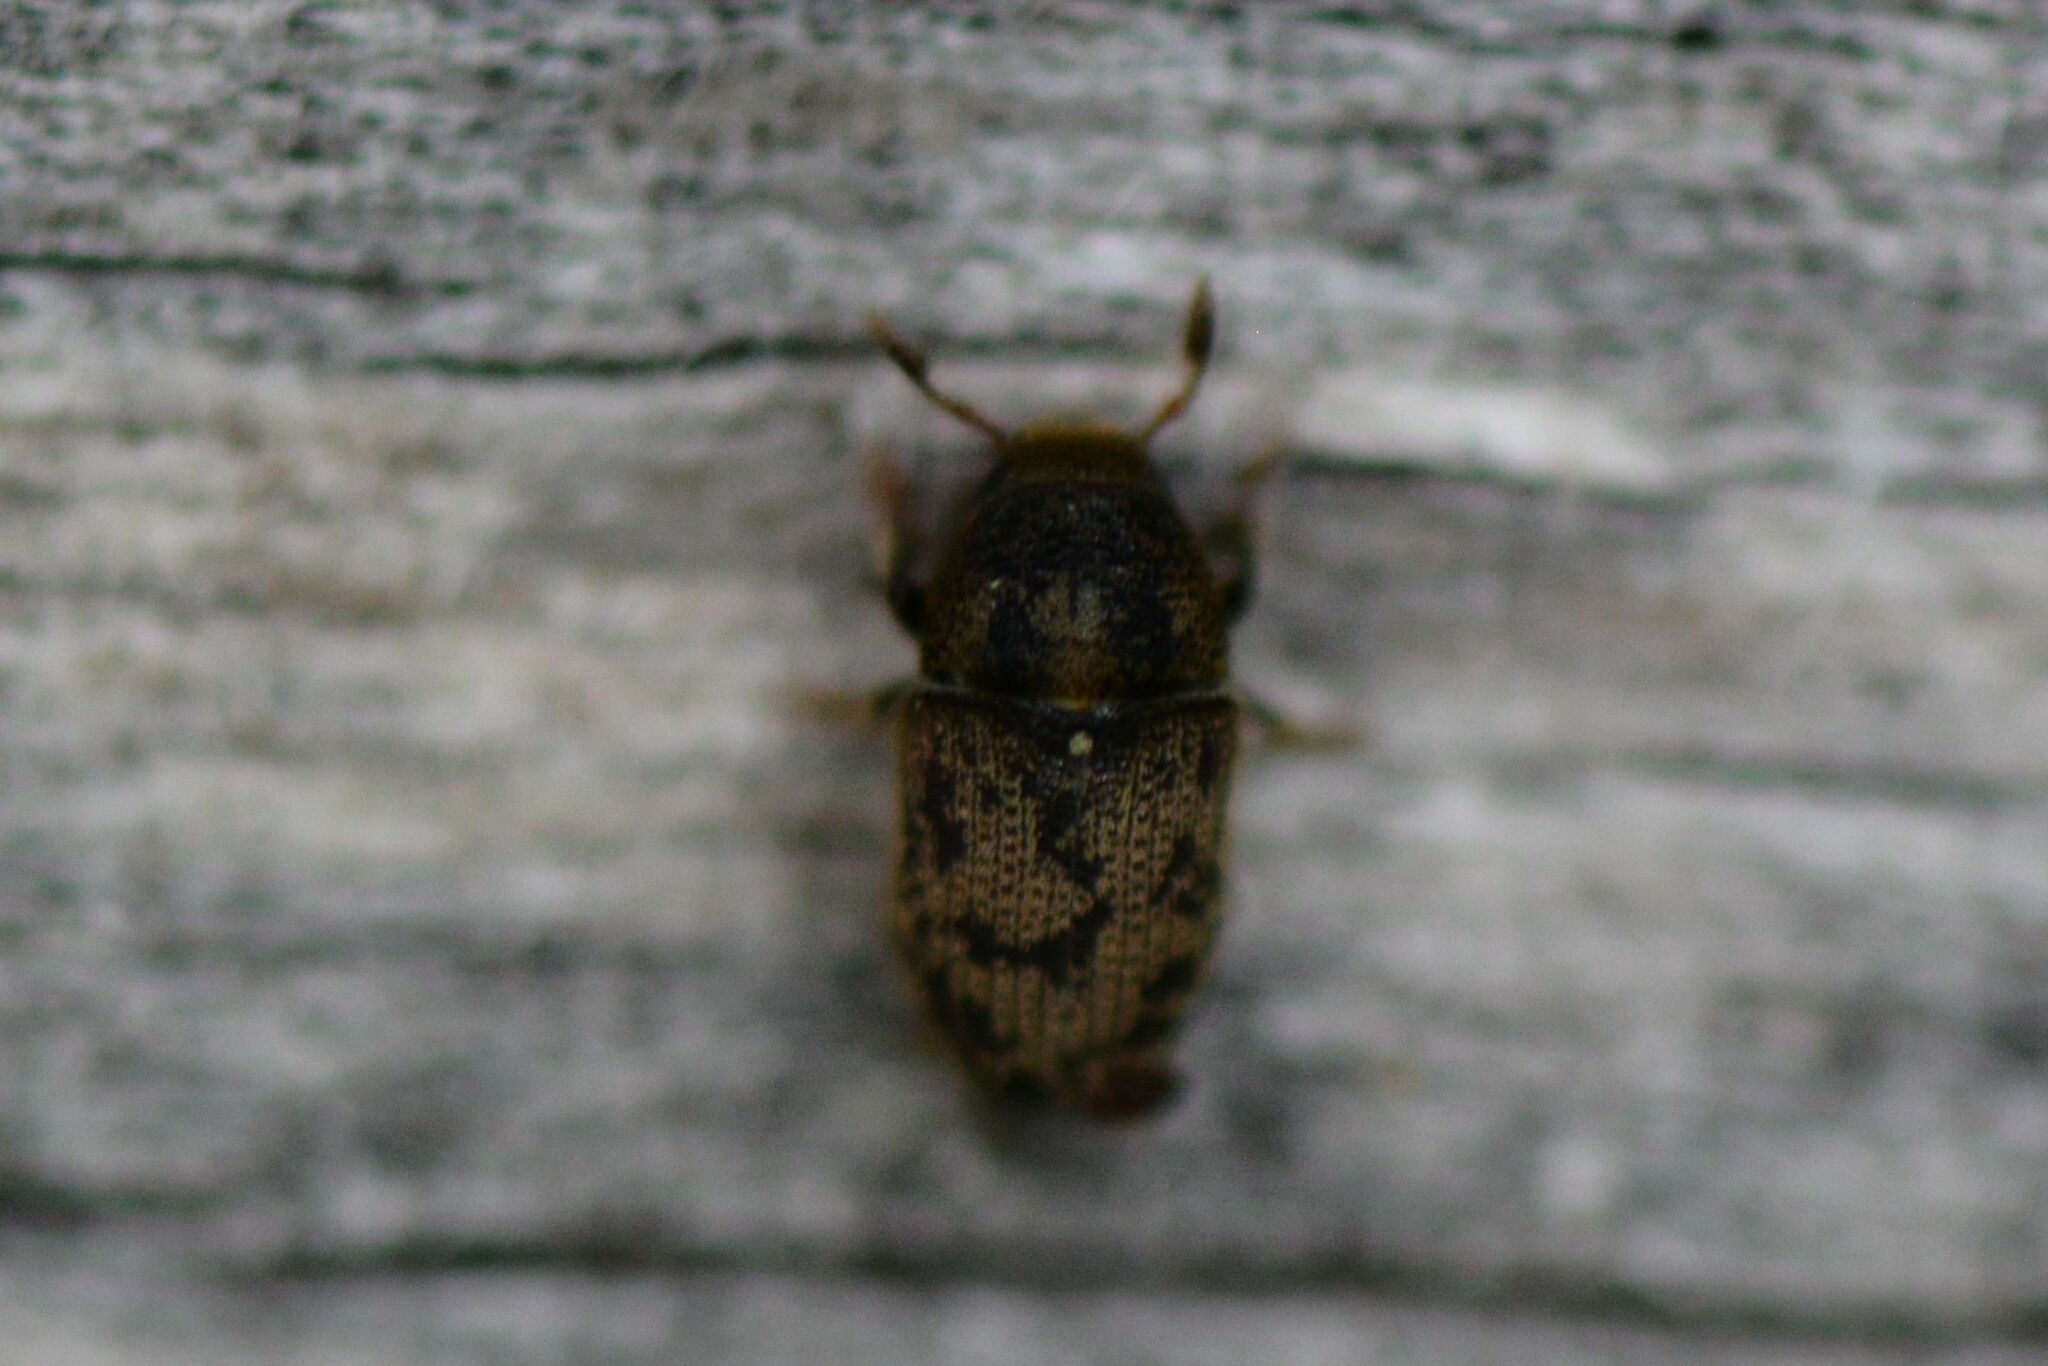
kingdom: Animalia
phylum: Arthropoda
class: Insecta
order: Coleoptera
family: Curculionidae
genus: Hylesinus
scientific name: Hylesinus varius
